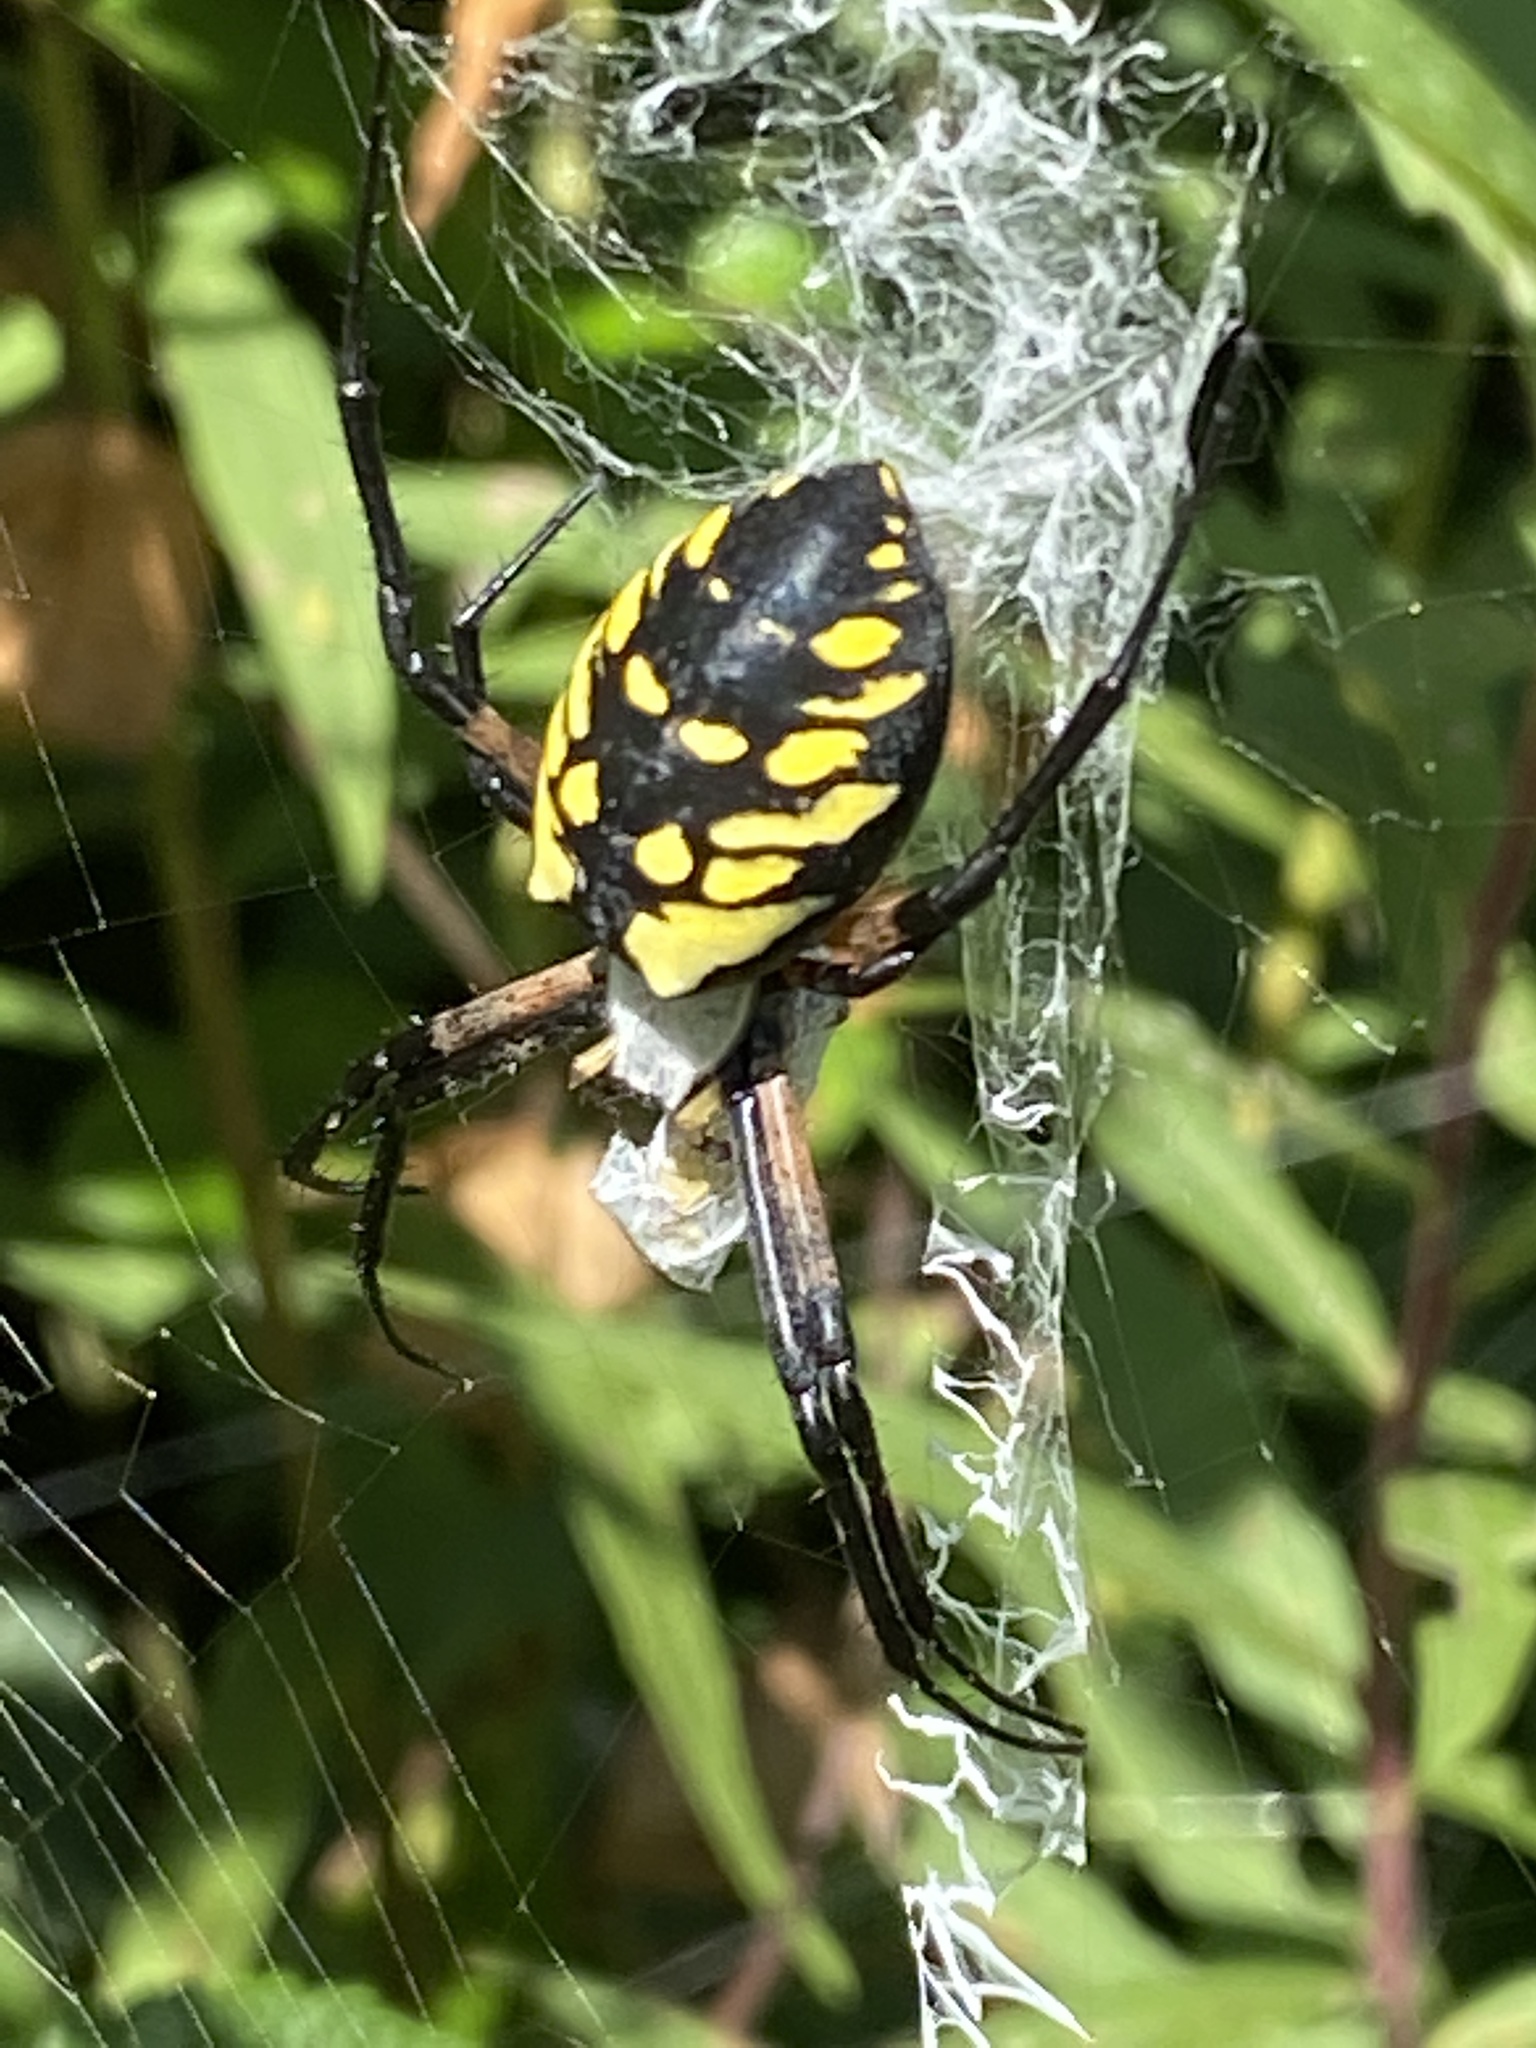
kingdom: Animalia
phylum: Arthropoda
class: Arachnida
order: Araneae
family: Araneidae
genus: Argiope
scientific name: Argiope aurantia
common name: Orb weavers
